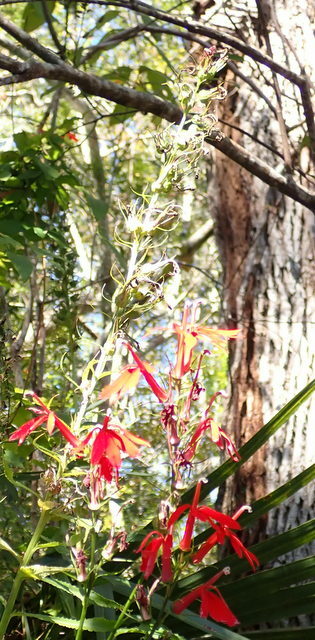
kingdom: Plantae
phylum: Tracheophyta
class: Magnoliopsida
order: Asterales
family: Campanulaceae
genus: Lobelia
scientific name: Lobelia cardinalis
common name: Cardinal flower
